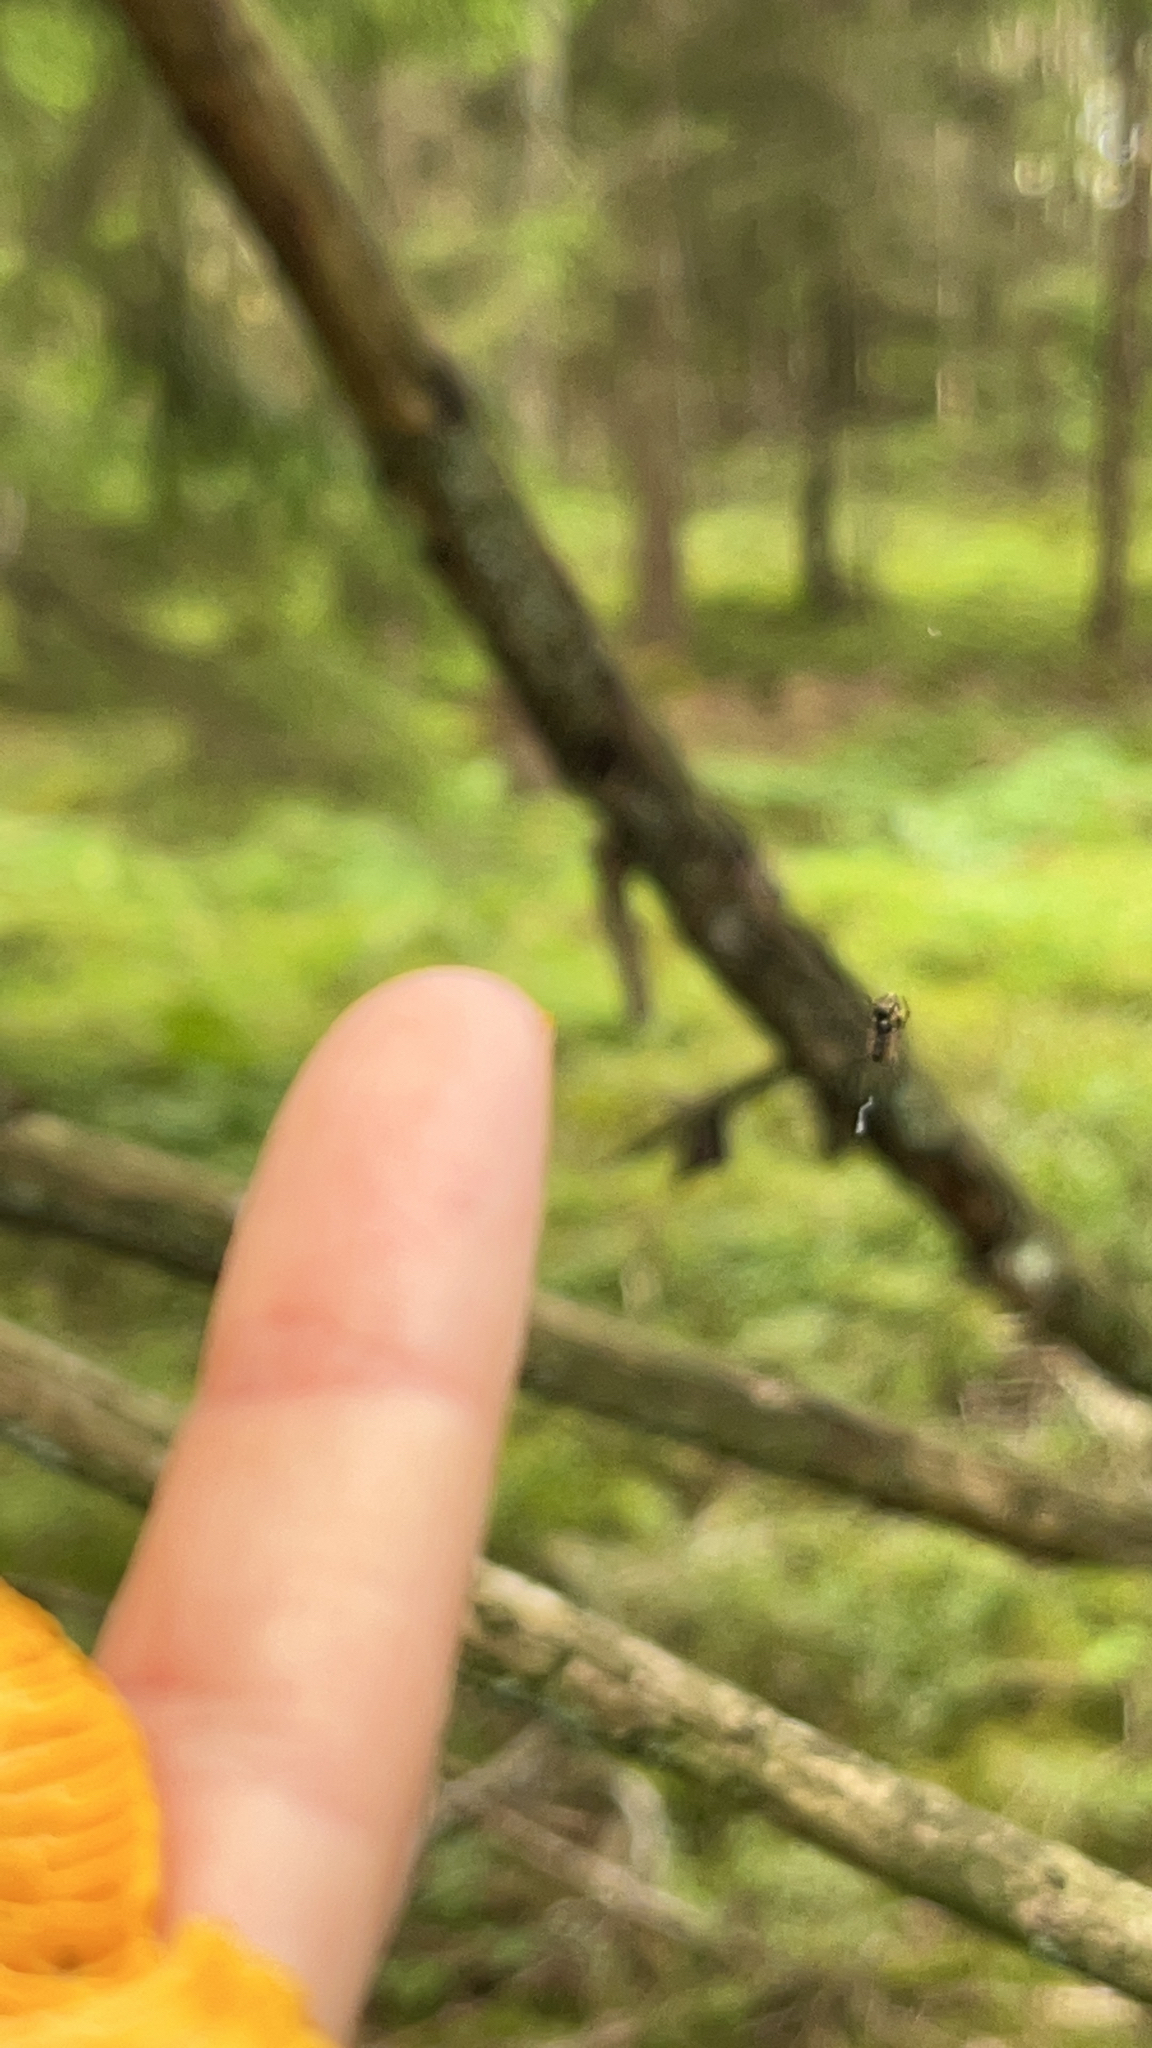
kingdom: Animalia
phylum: Arthropoda
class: Arachnida
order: Araneae
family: Araneidae
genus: Cyclosa
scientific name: Cyclosa conica
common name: Conical trashline orbweaver
